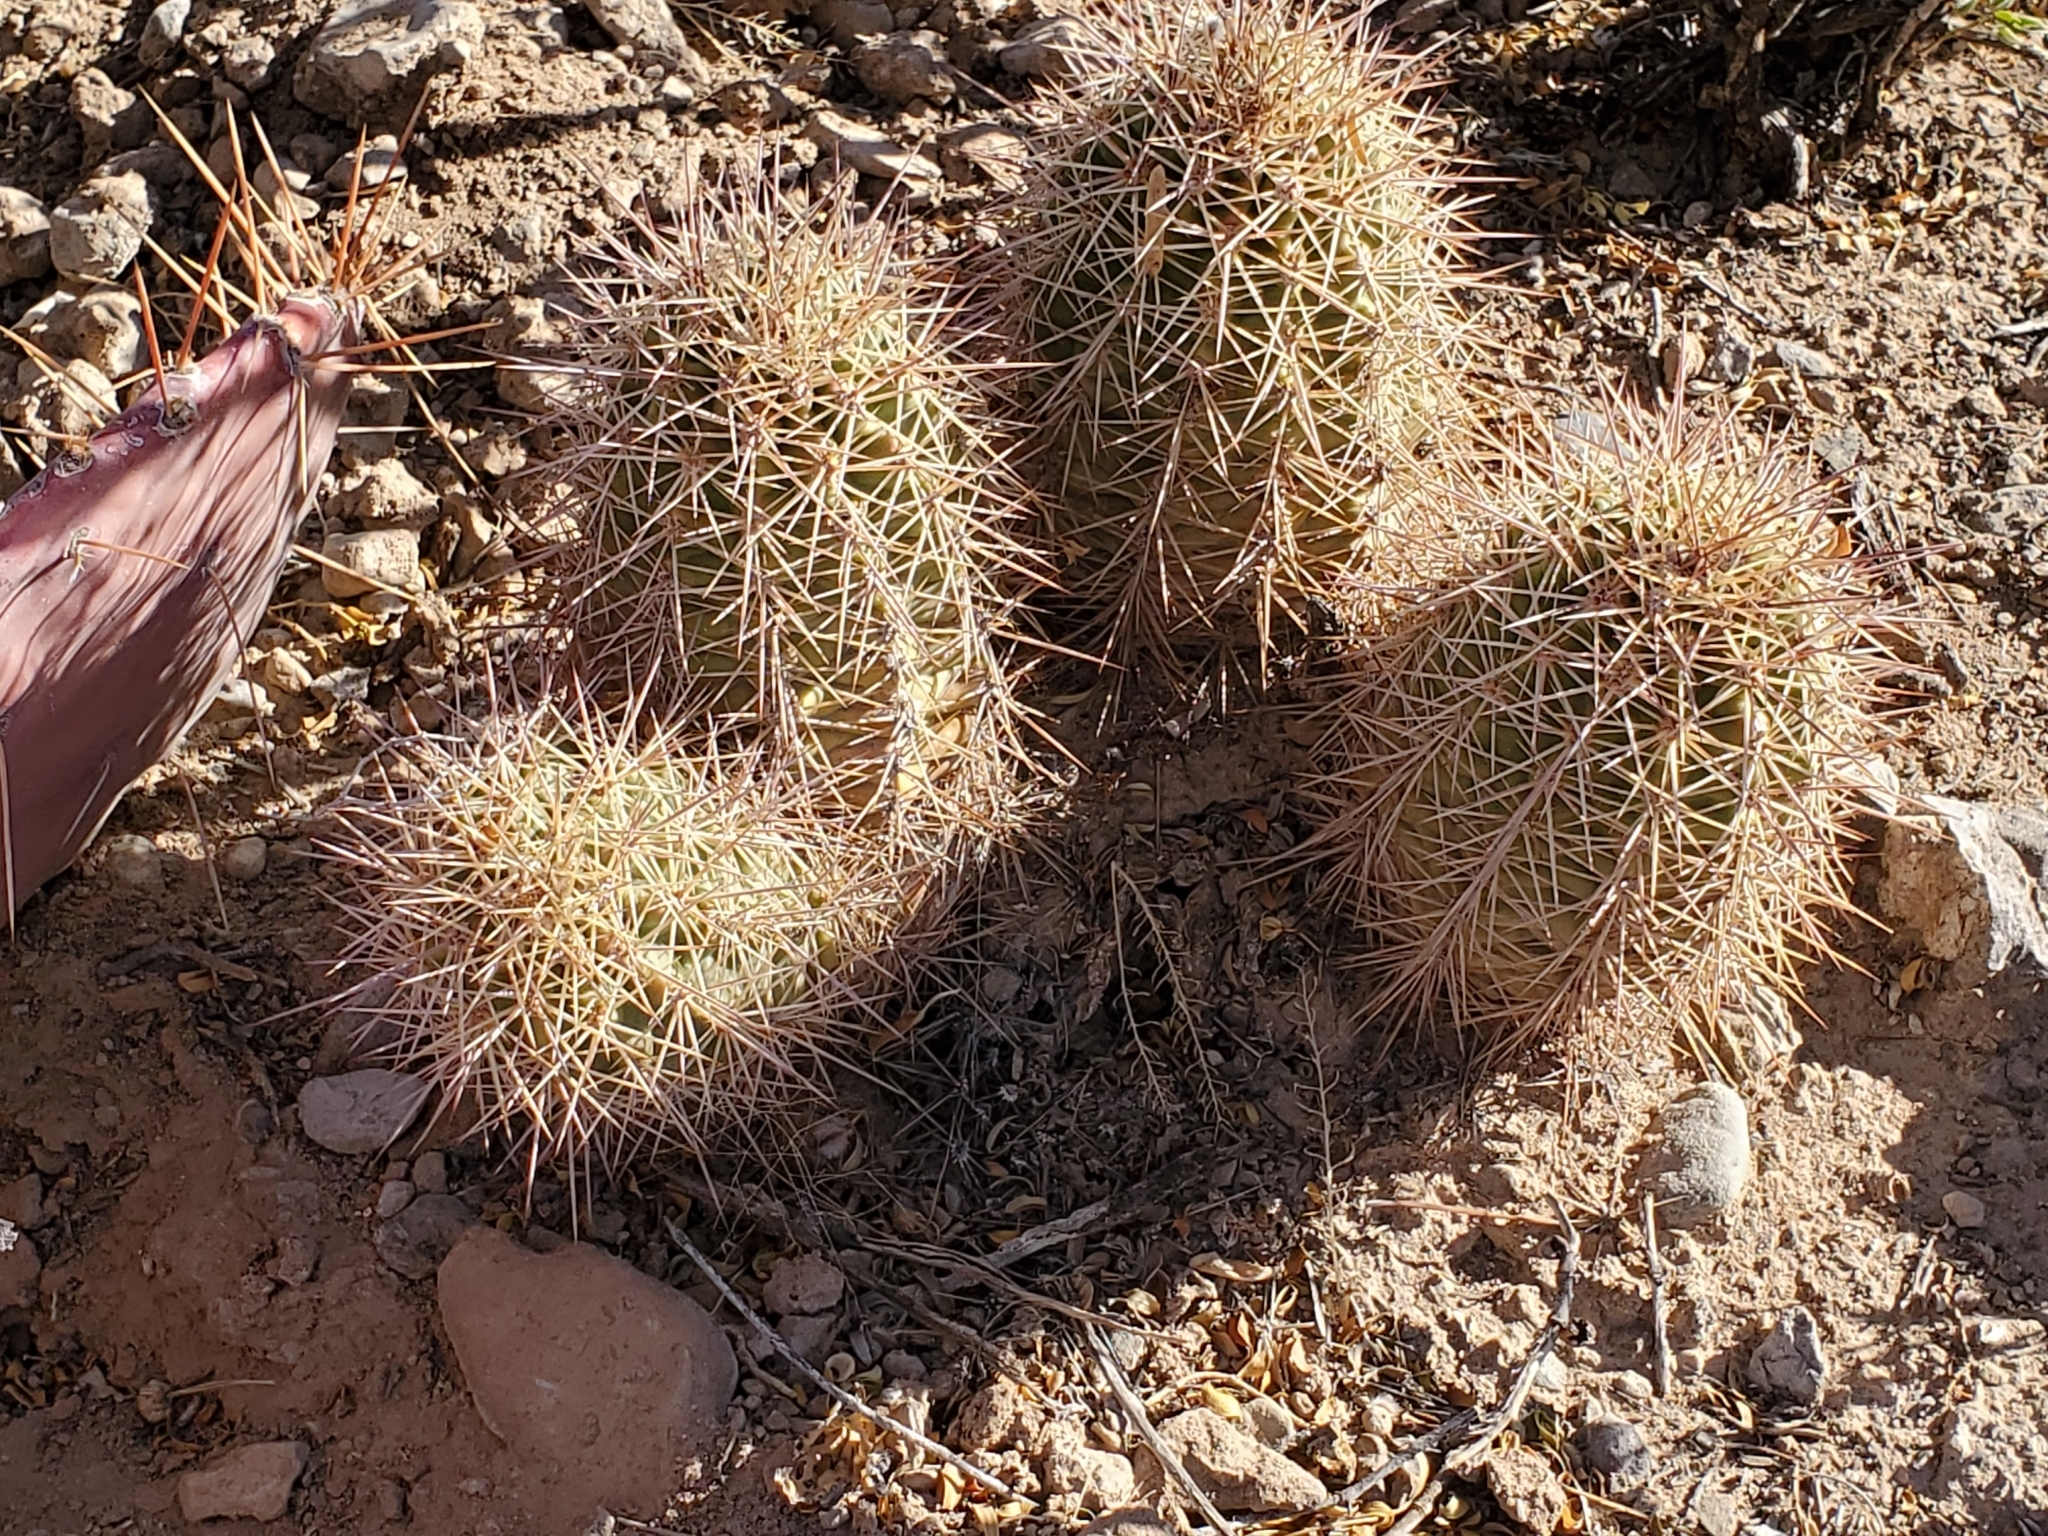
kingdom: Plantae
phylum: Tracheophyta
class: Magnoliopsida
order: Caryophyllales
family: Cactaceae
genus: Echinocereus
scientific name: Echinocereus coccineus
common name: Scarlet hedgehog cactus
